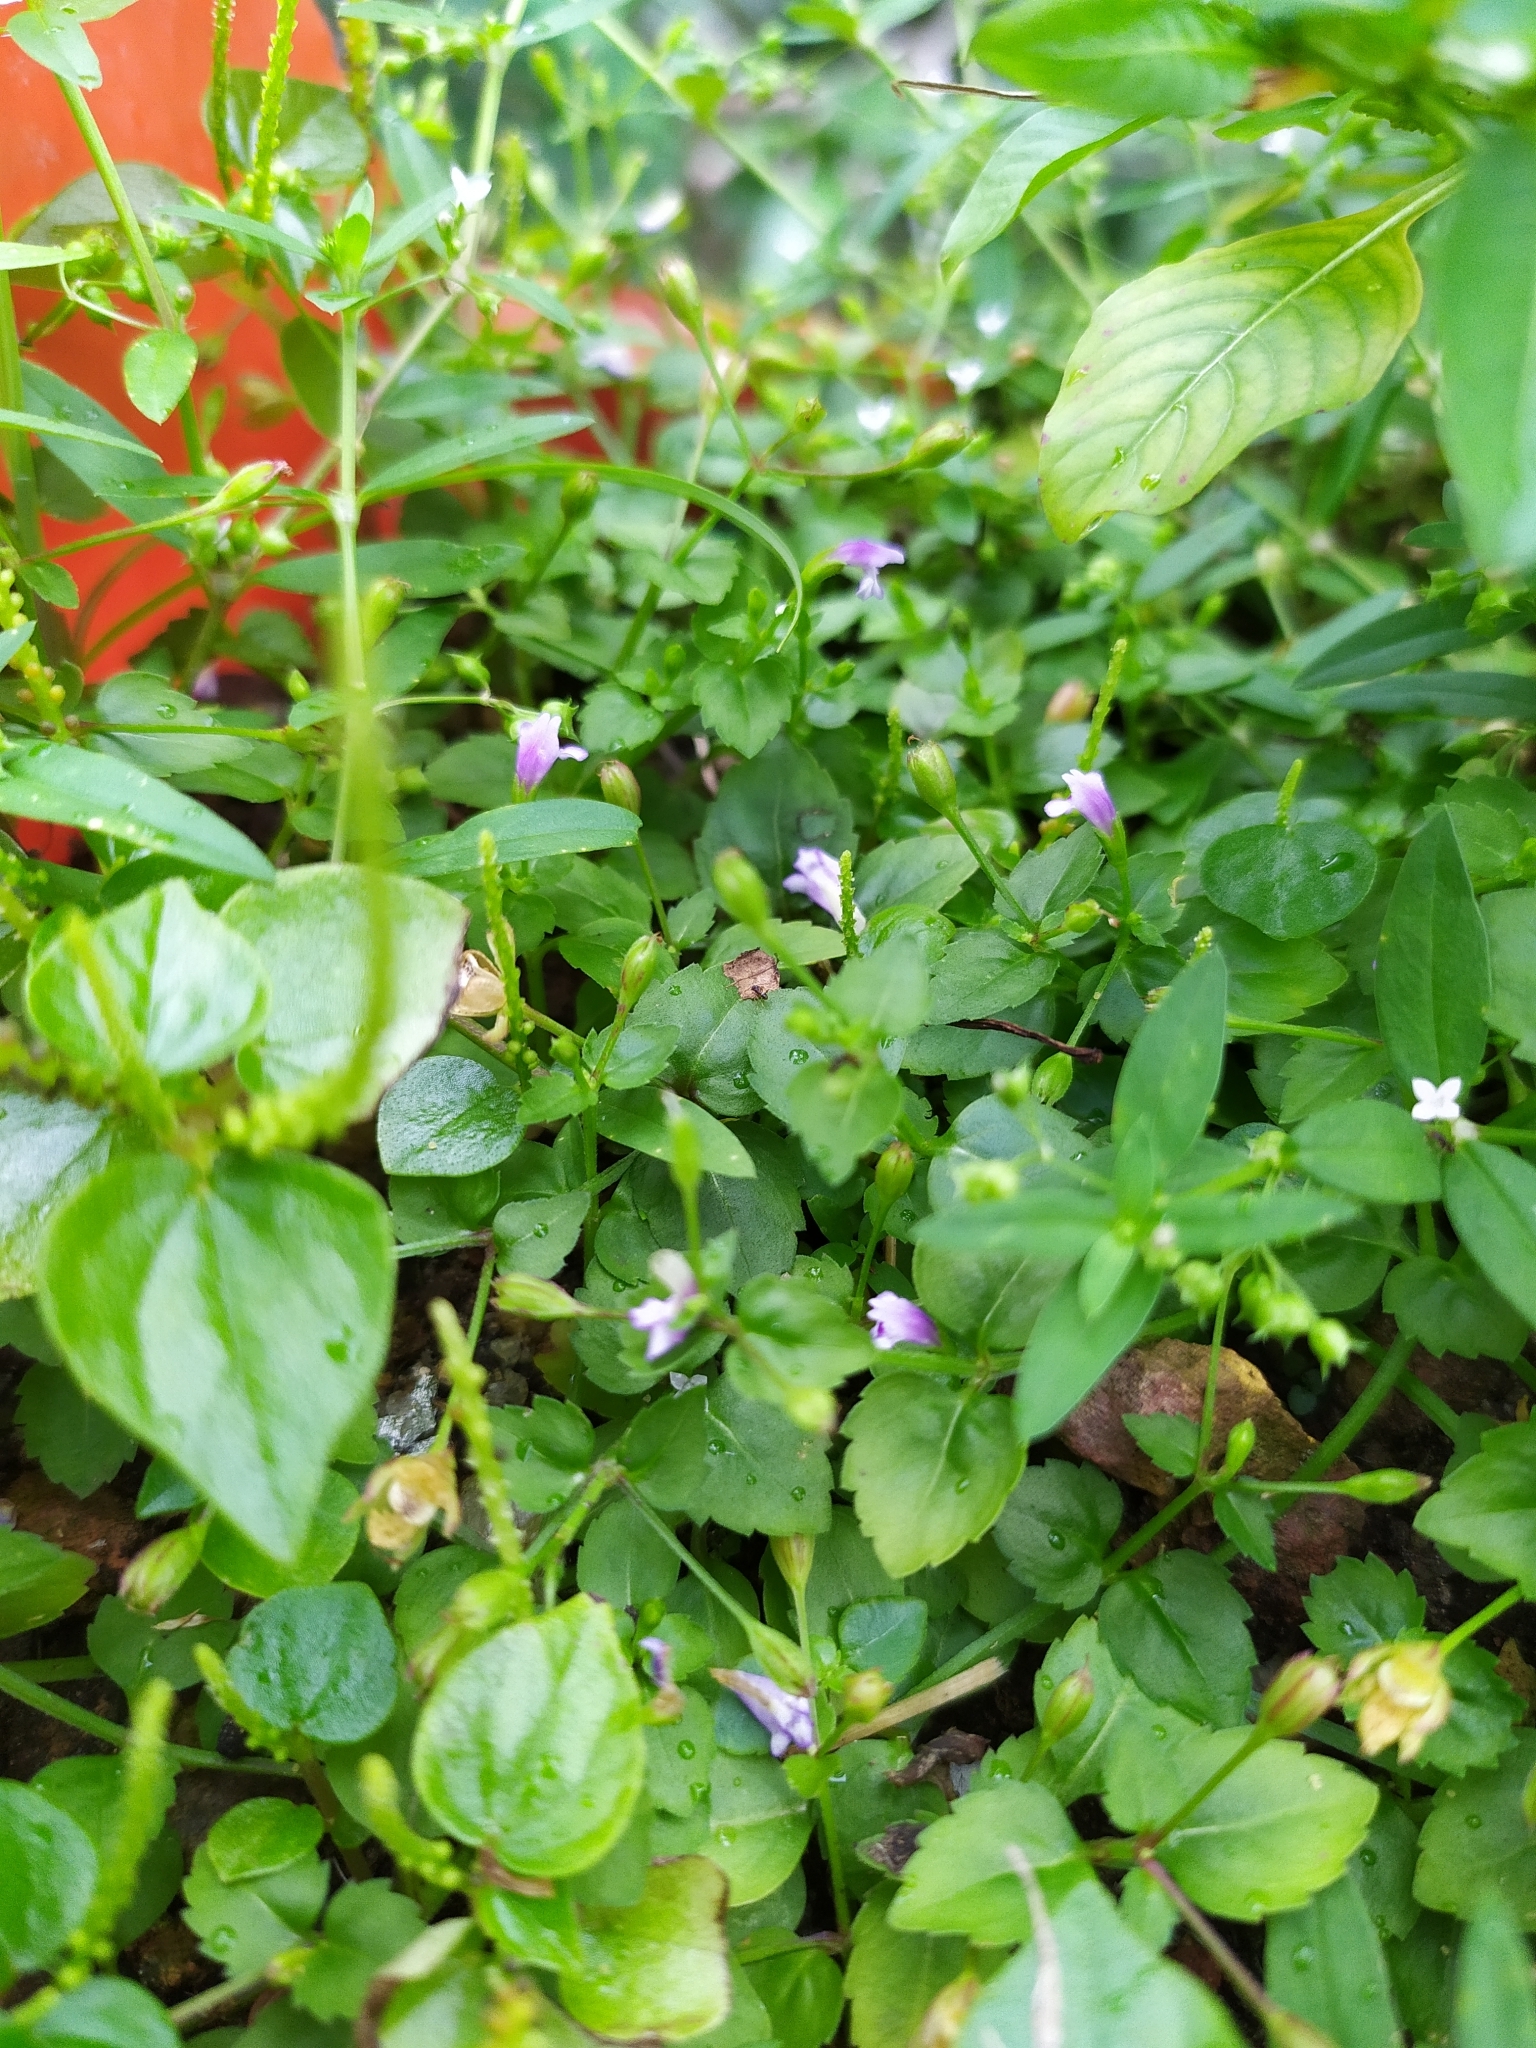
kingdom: Plantae
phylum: Tracheophyta
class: Magnoliopsida
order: Lamiales
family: Linderniaceae
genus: Torenia
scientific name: Torenia crustacea
